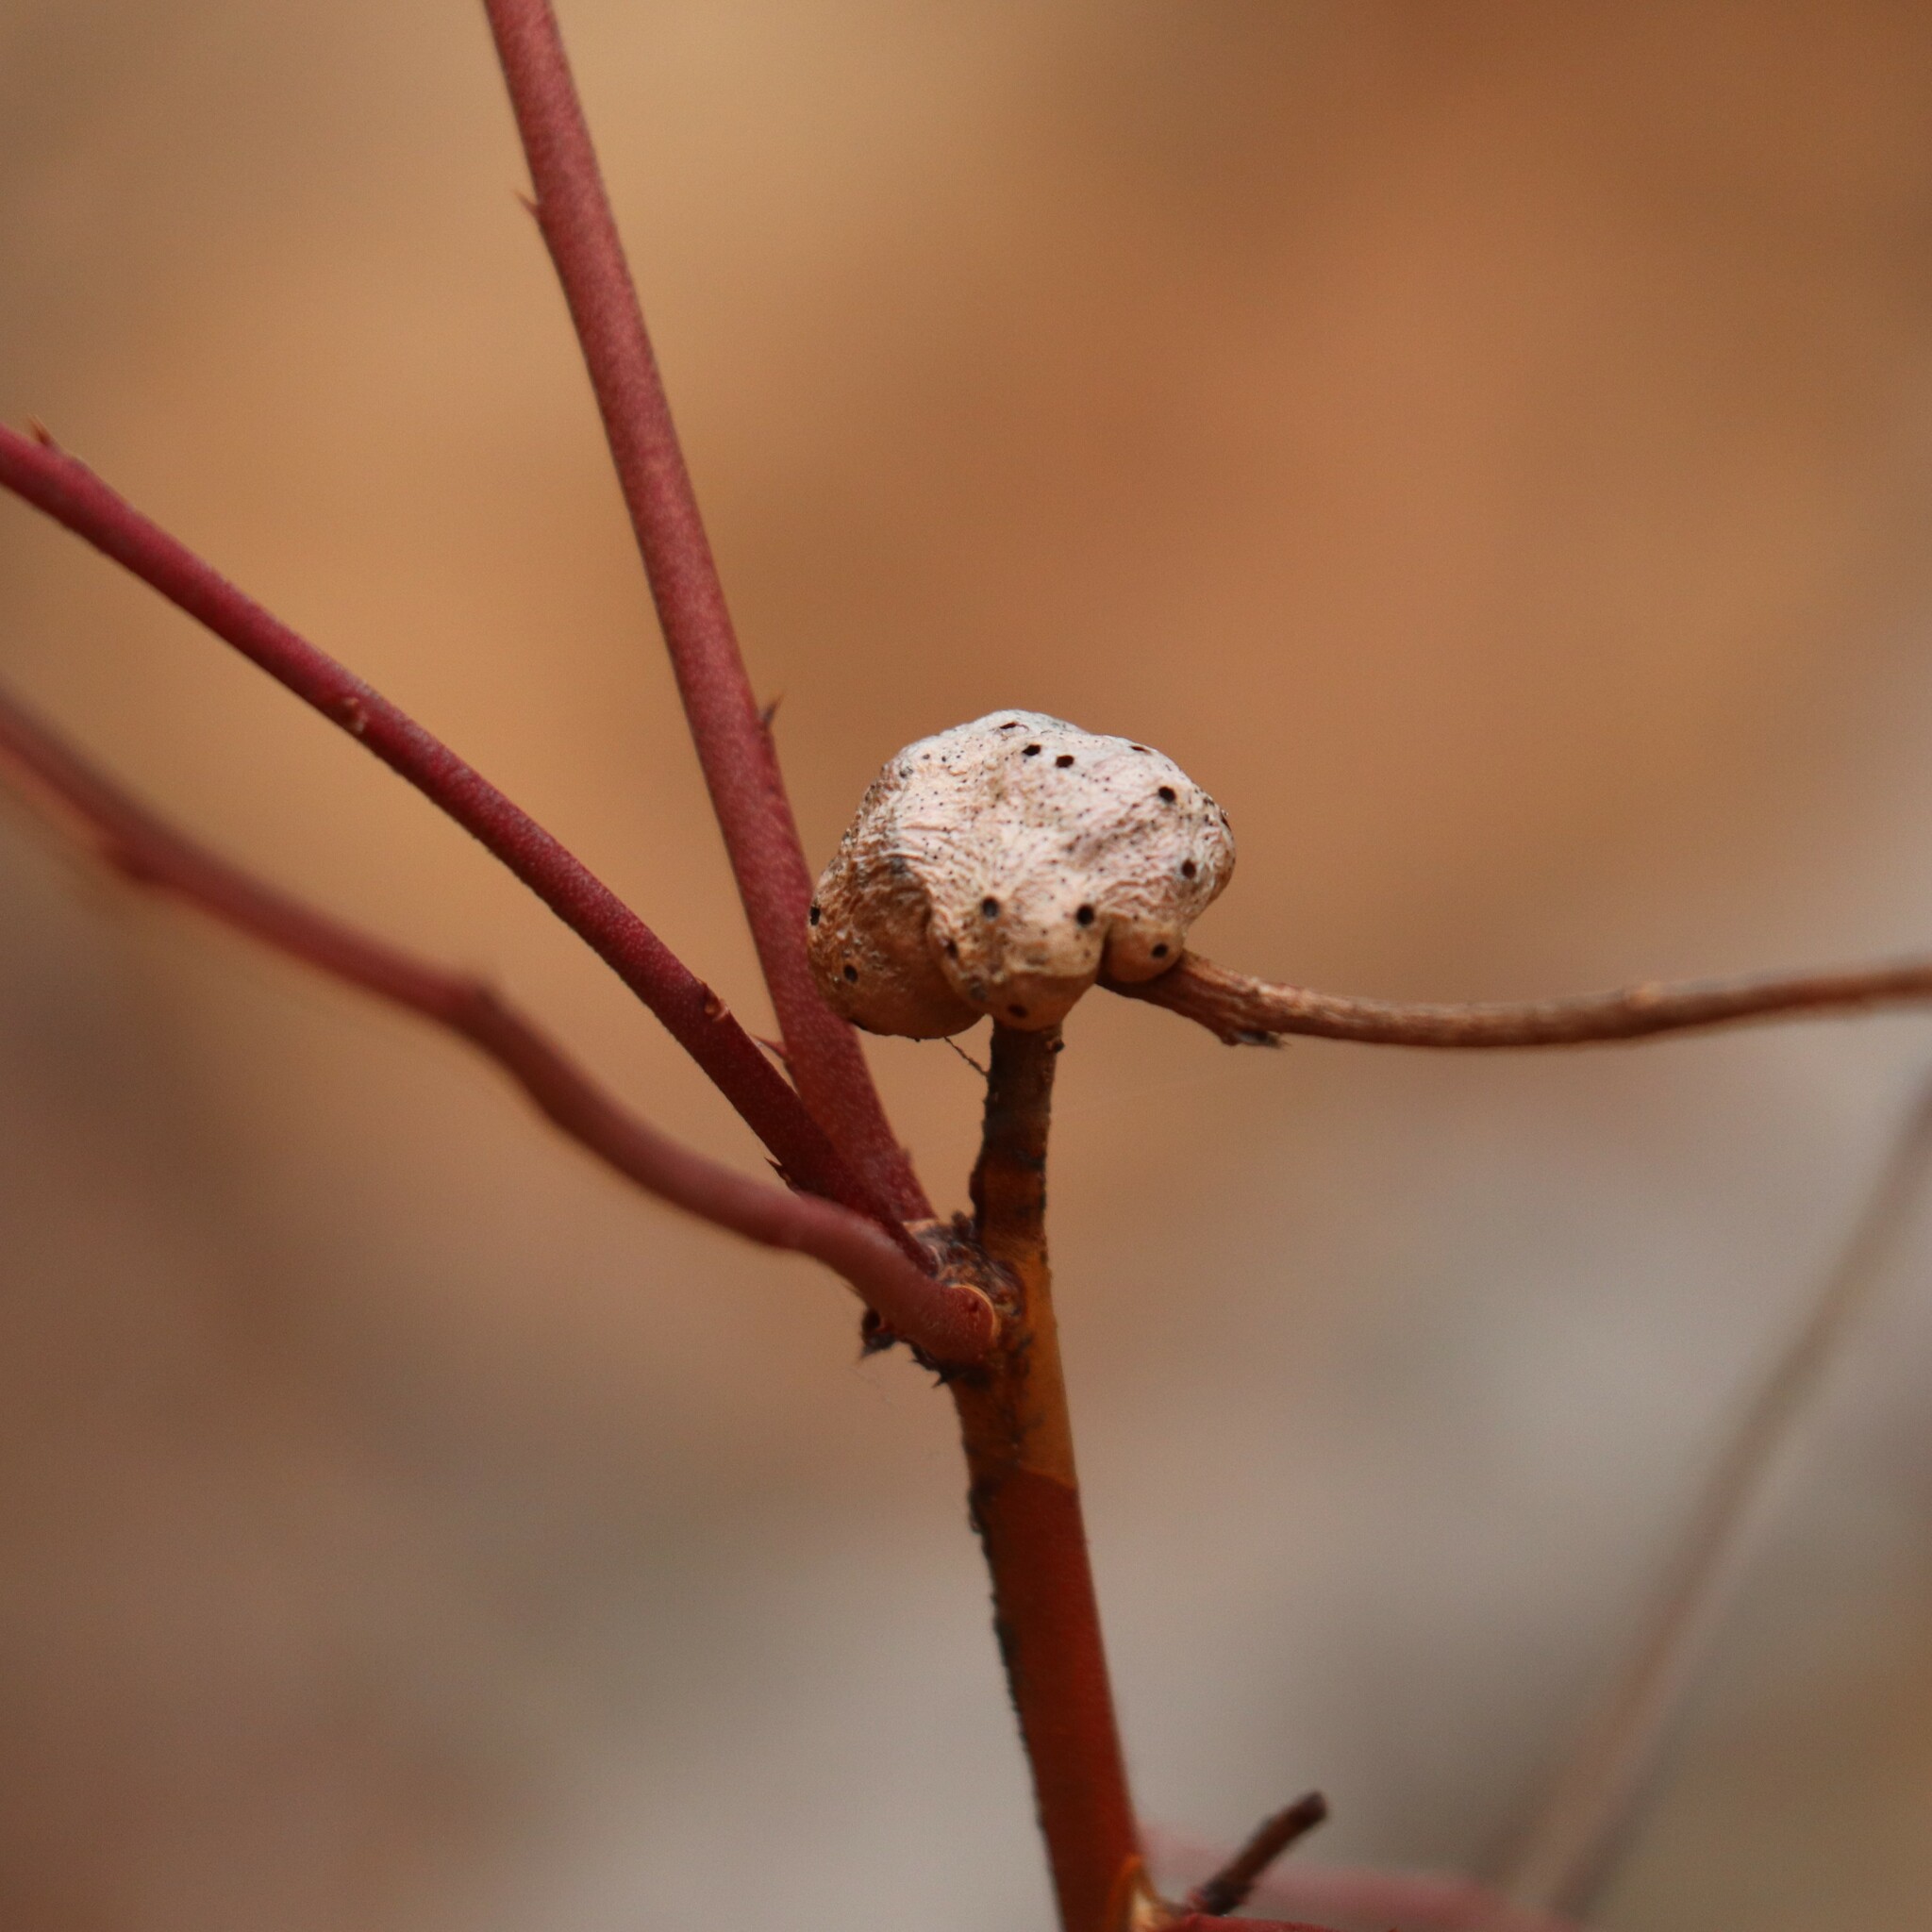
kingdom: Animalia
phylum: Arthropoda
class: Insecta
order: Hymenoptera
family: Pteromalidae
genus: Hemadas
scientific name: Hemadas nubilipennis
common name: Blueberry stem gall wasp
